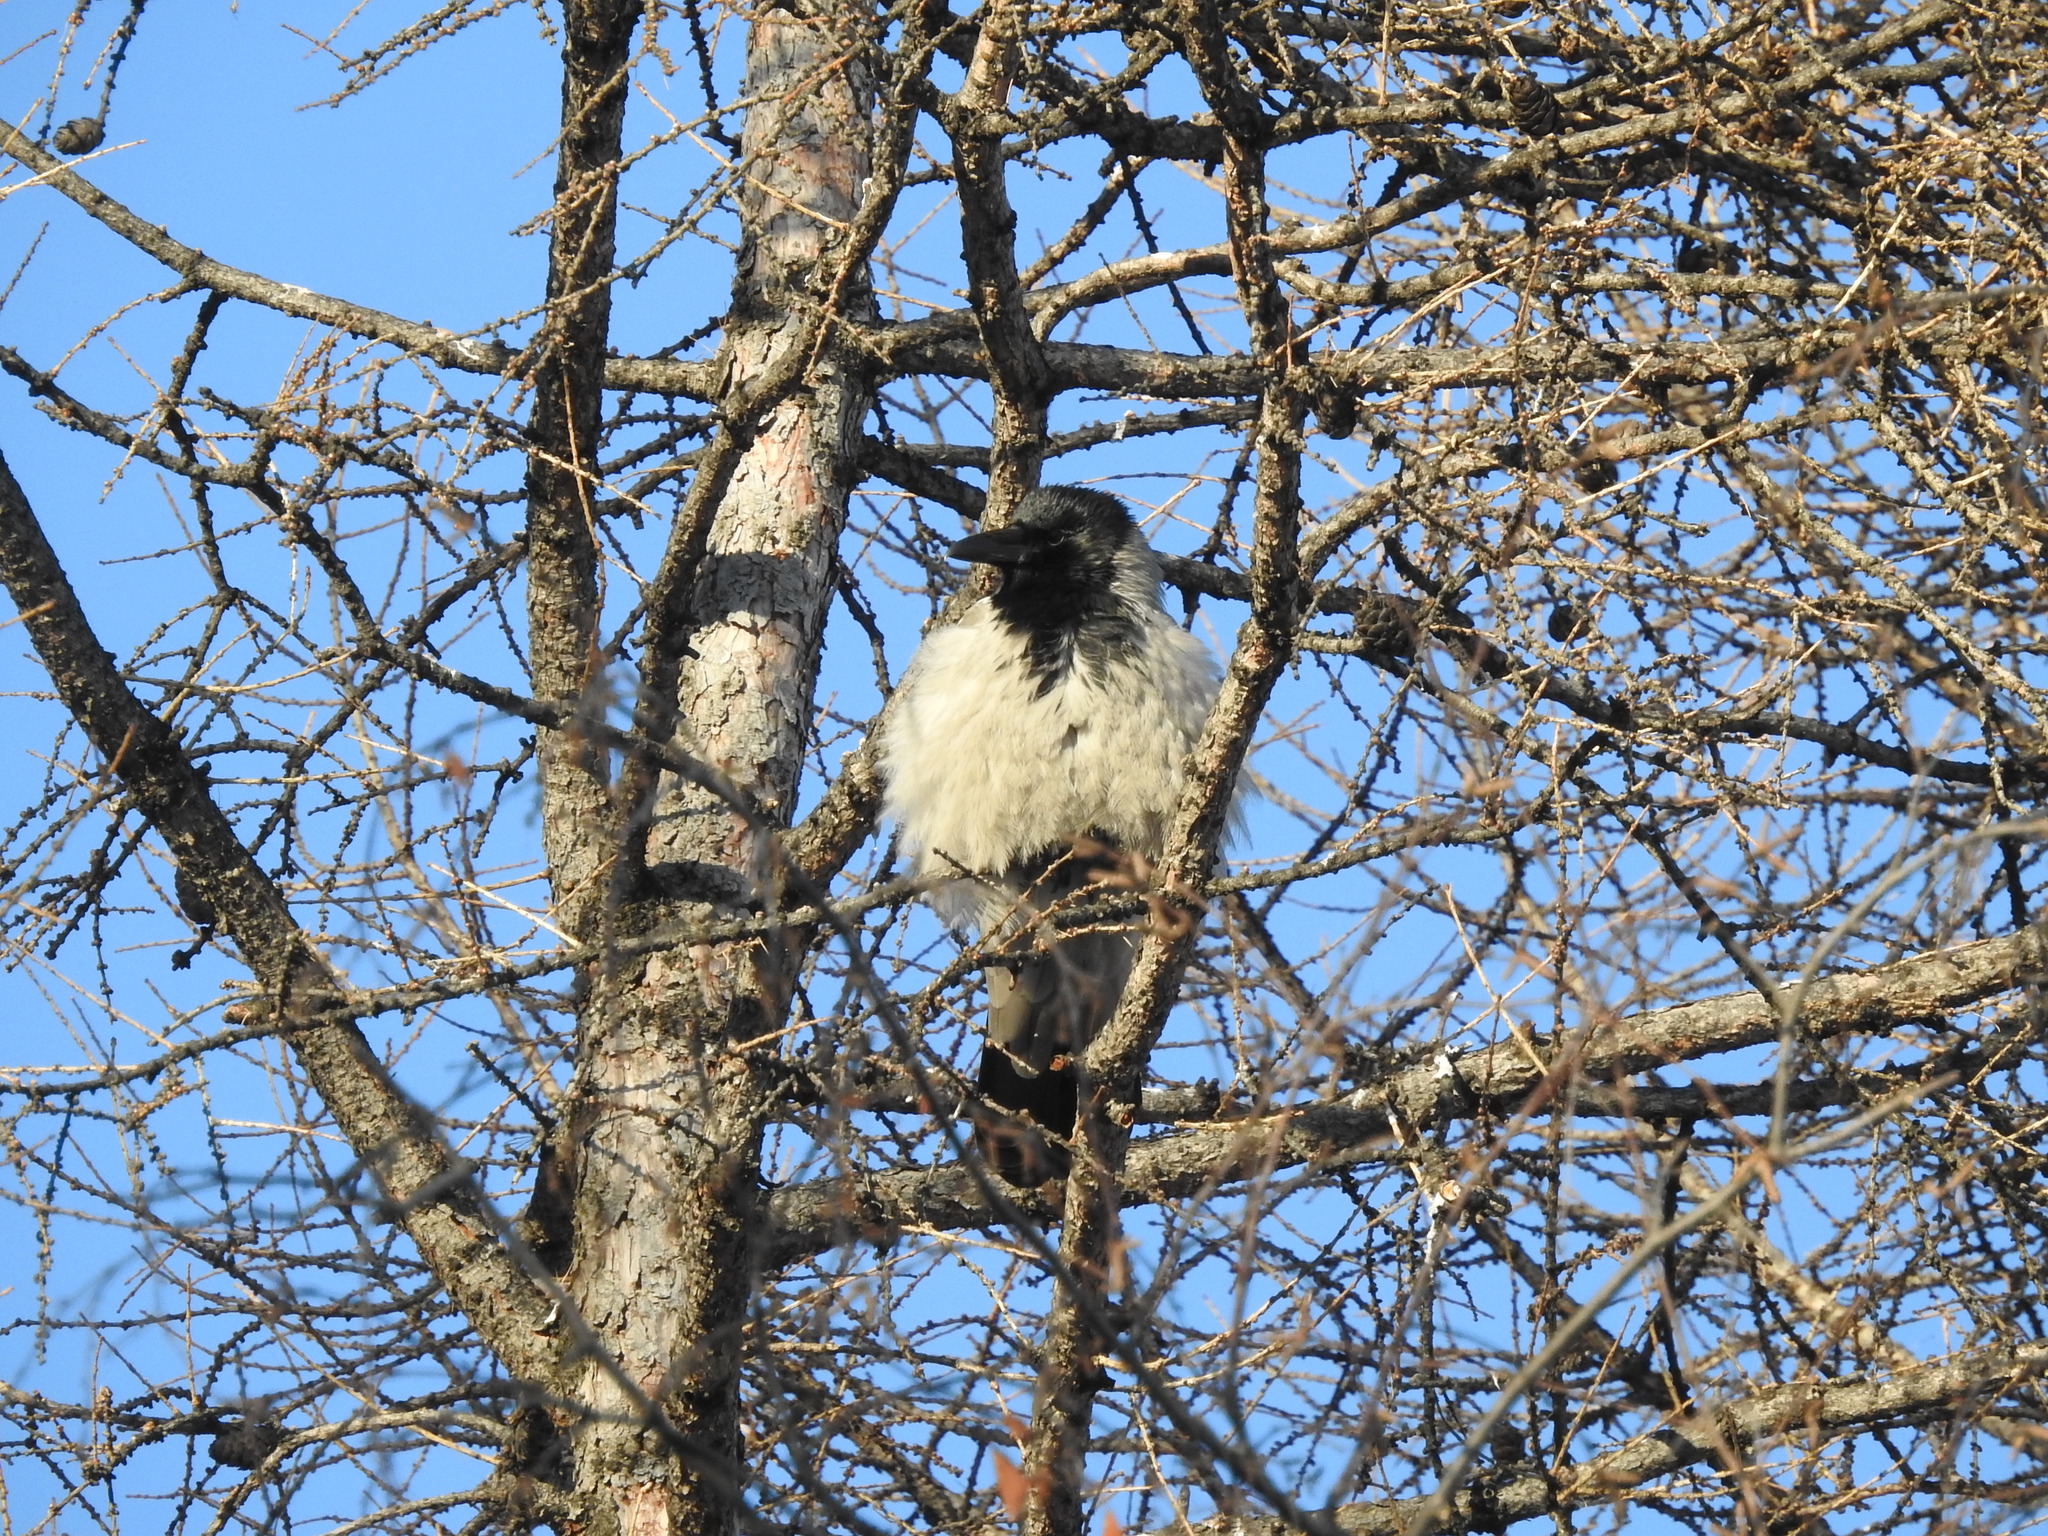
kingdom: Animalia
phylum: Chordata
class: Aves
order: Passeriformes
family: Corvidae
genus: Corvus
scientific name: Corvus cornix
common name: Hooded crow
